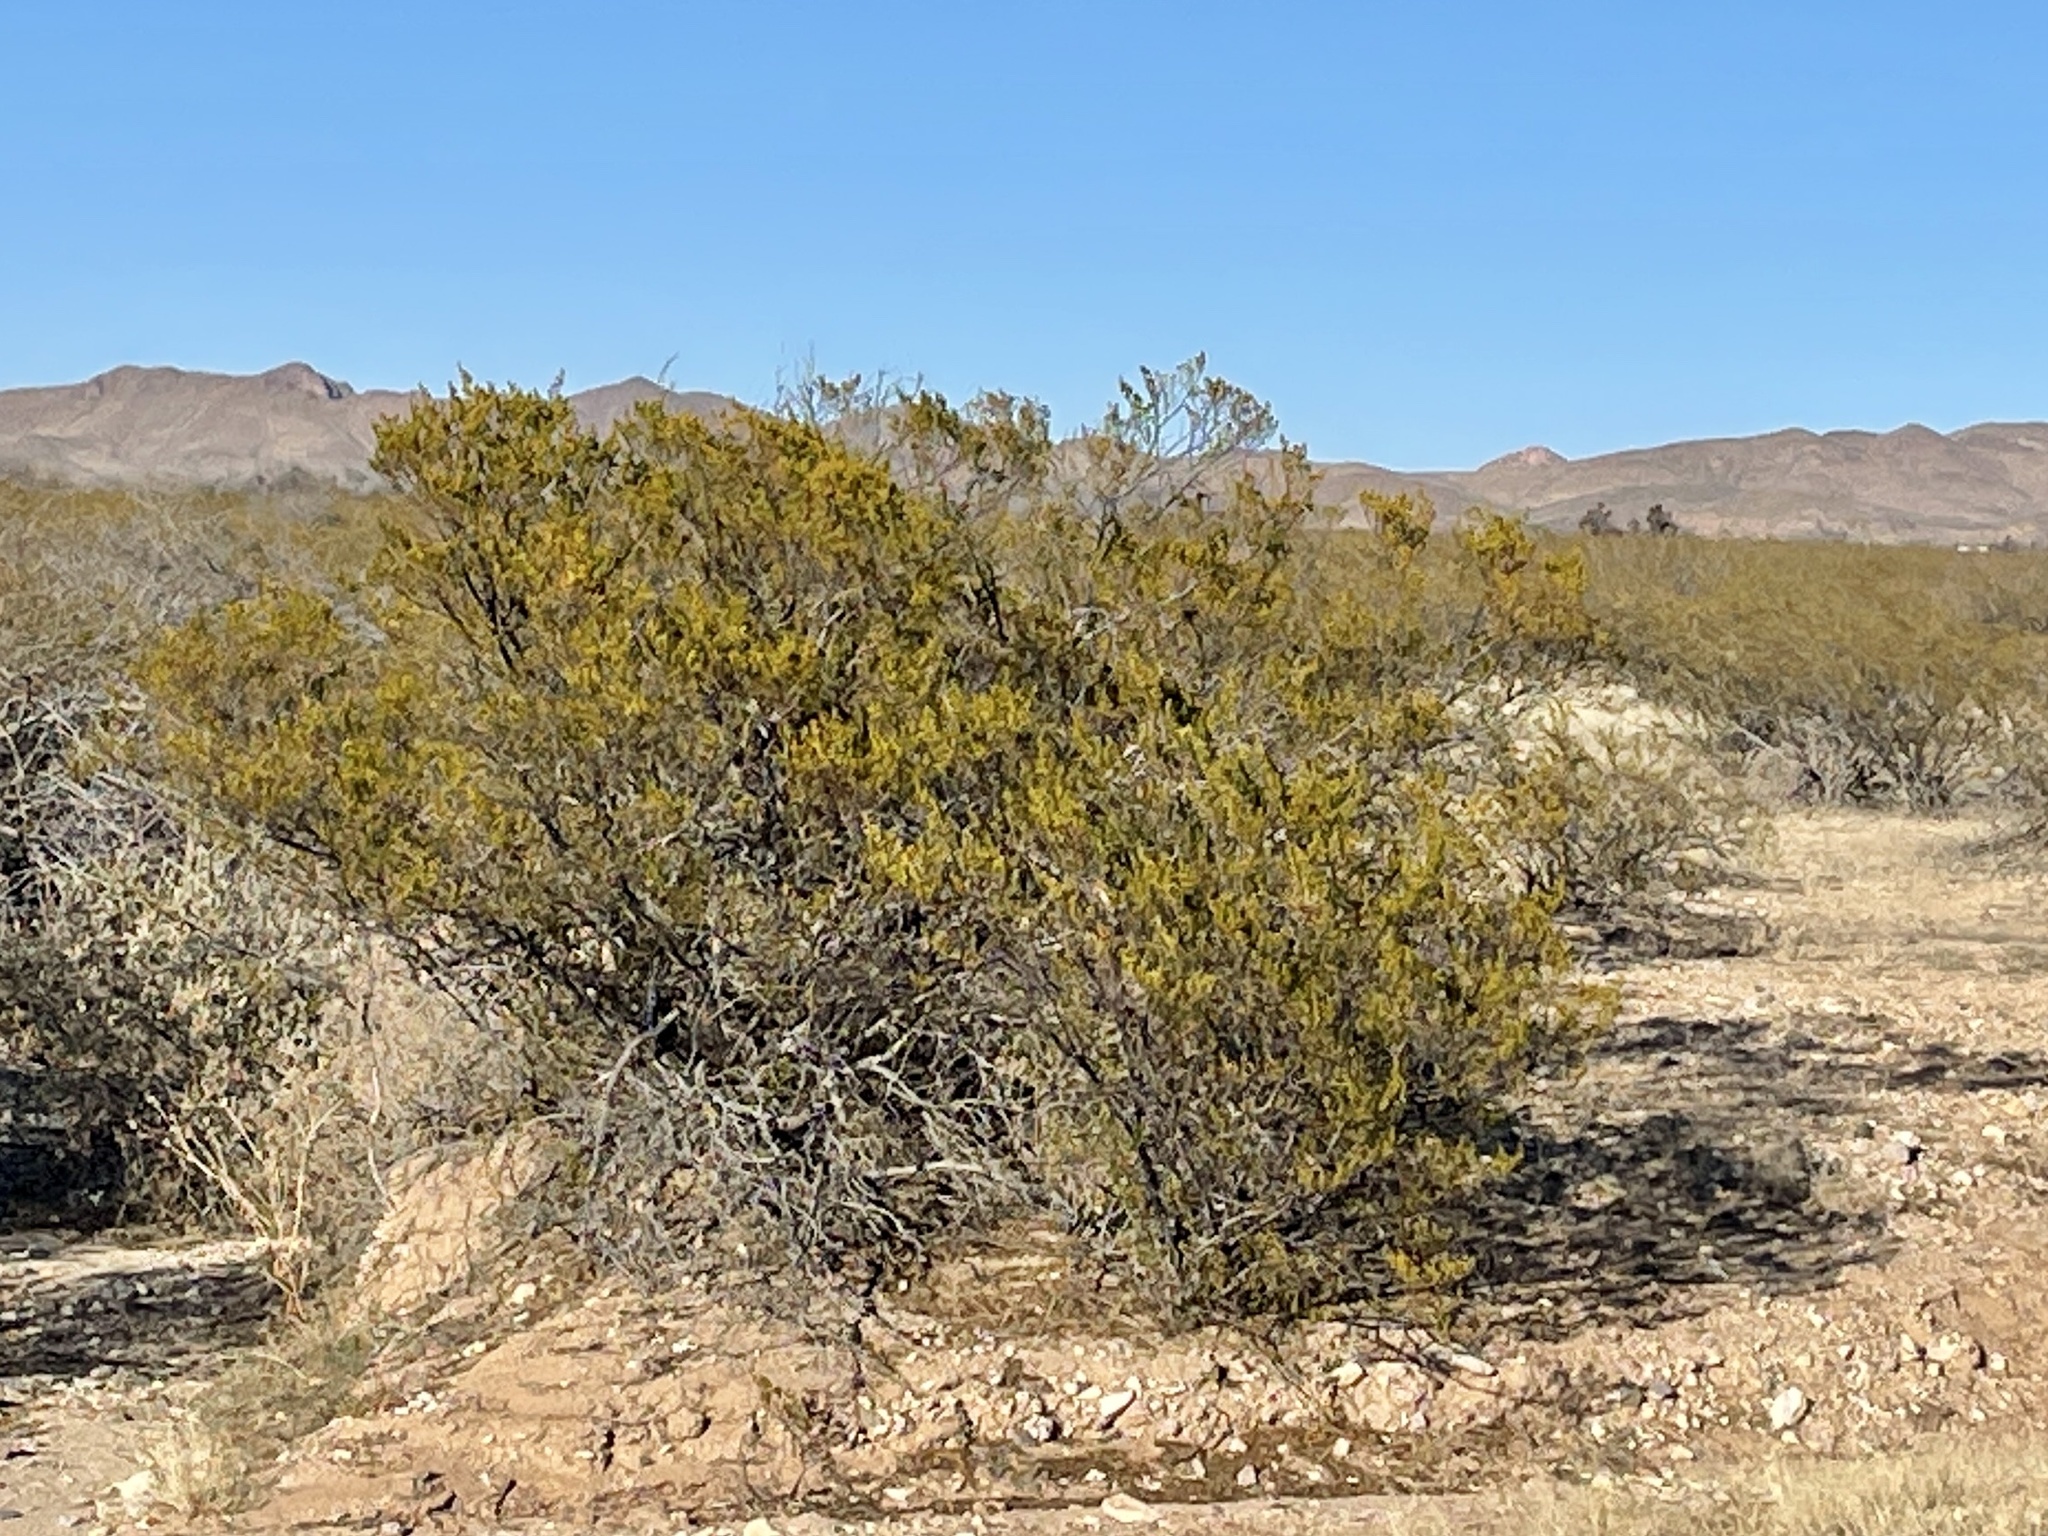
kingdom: Plantae
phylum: Tracheophyta
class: Magnoliopsida
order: Zygophyllales
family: Zygophyllaceae
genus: Larrea
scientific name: Larrea tridentata
